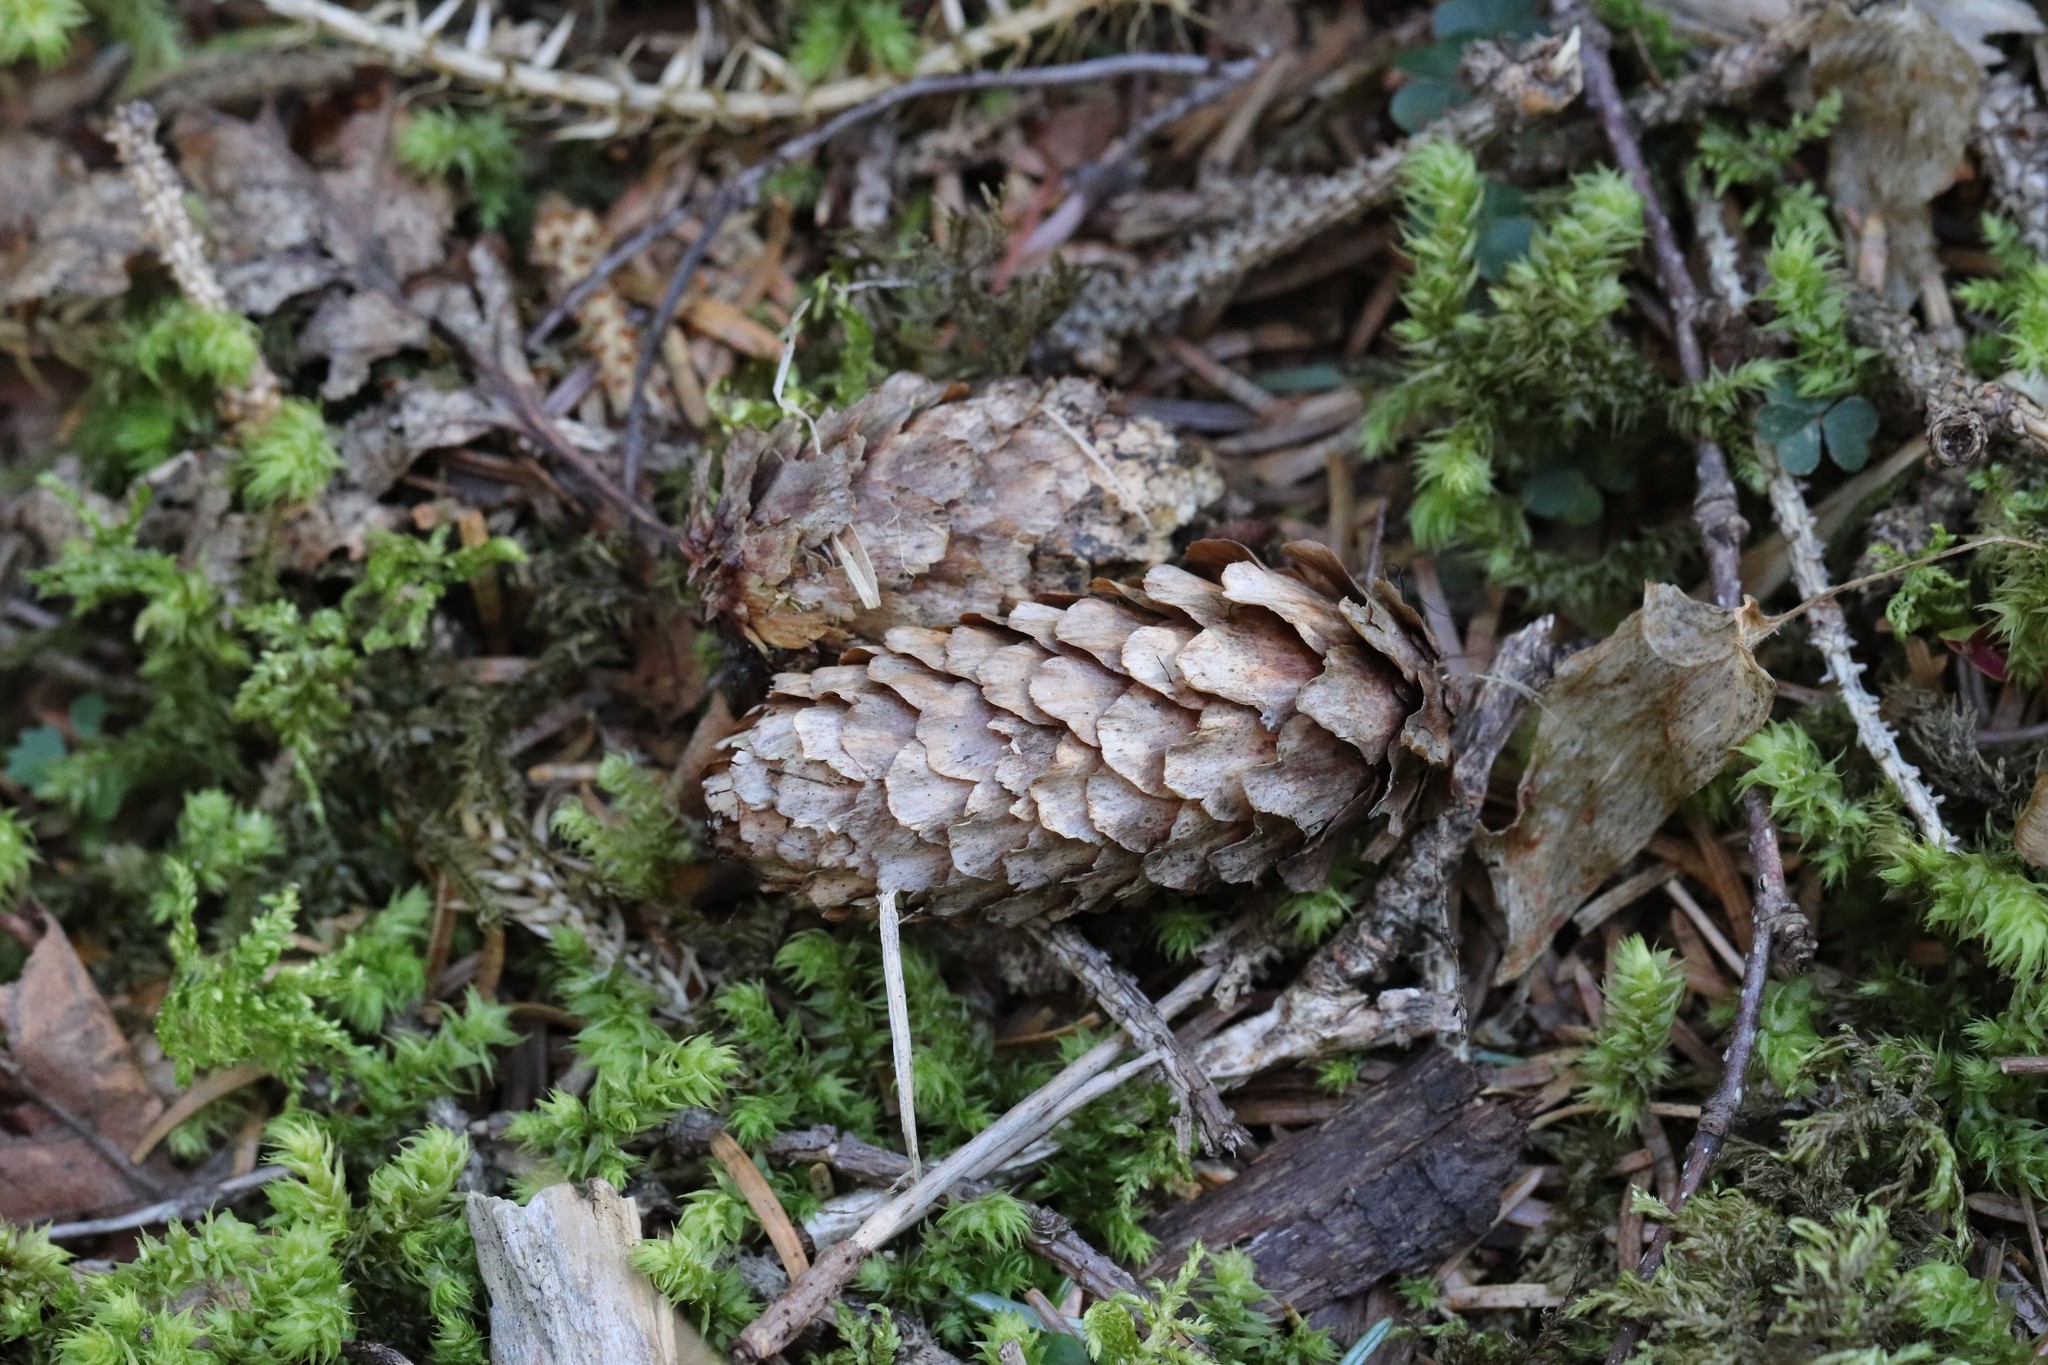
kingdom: Plantae
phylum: Tracheophyta
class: Pinopsida
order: Pinales
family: Pinaceae
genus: Picea
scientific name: Picea jezoensis
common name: Yeddo spruce
